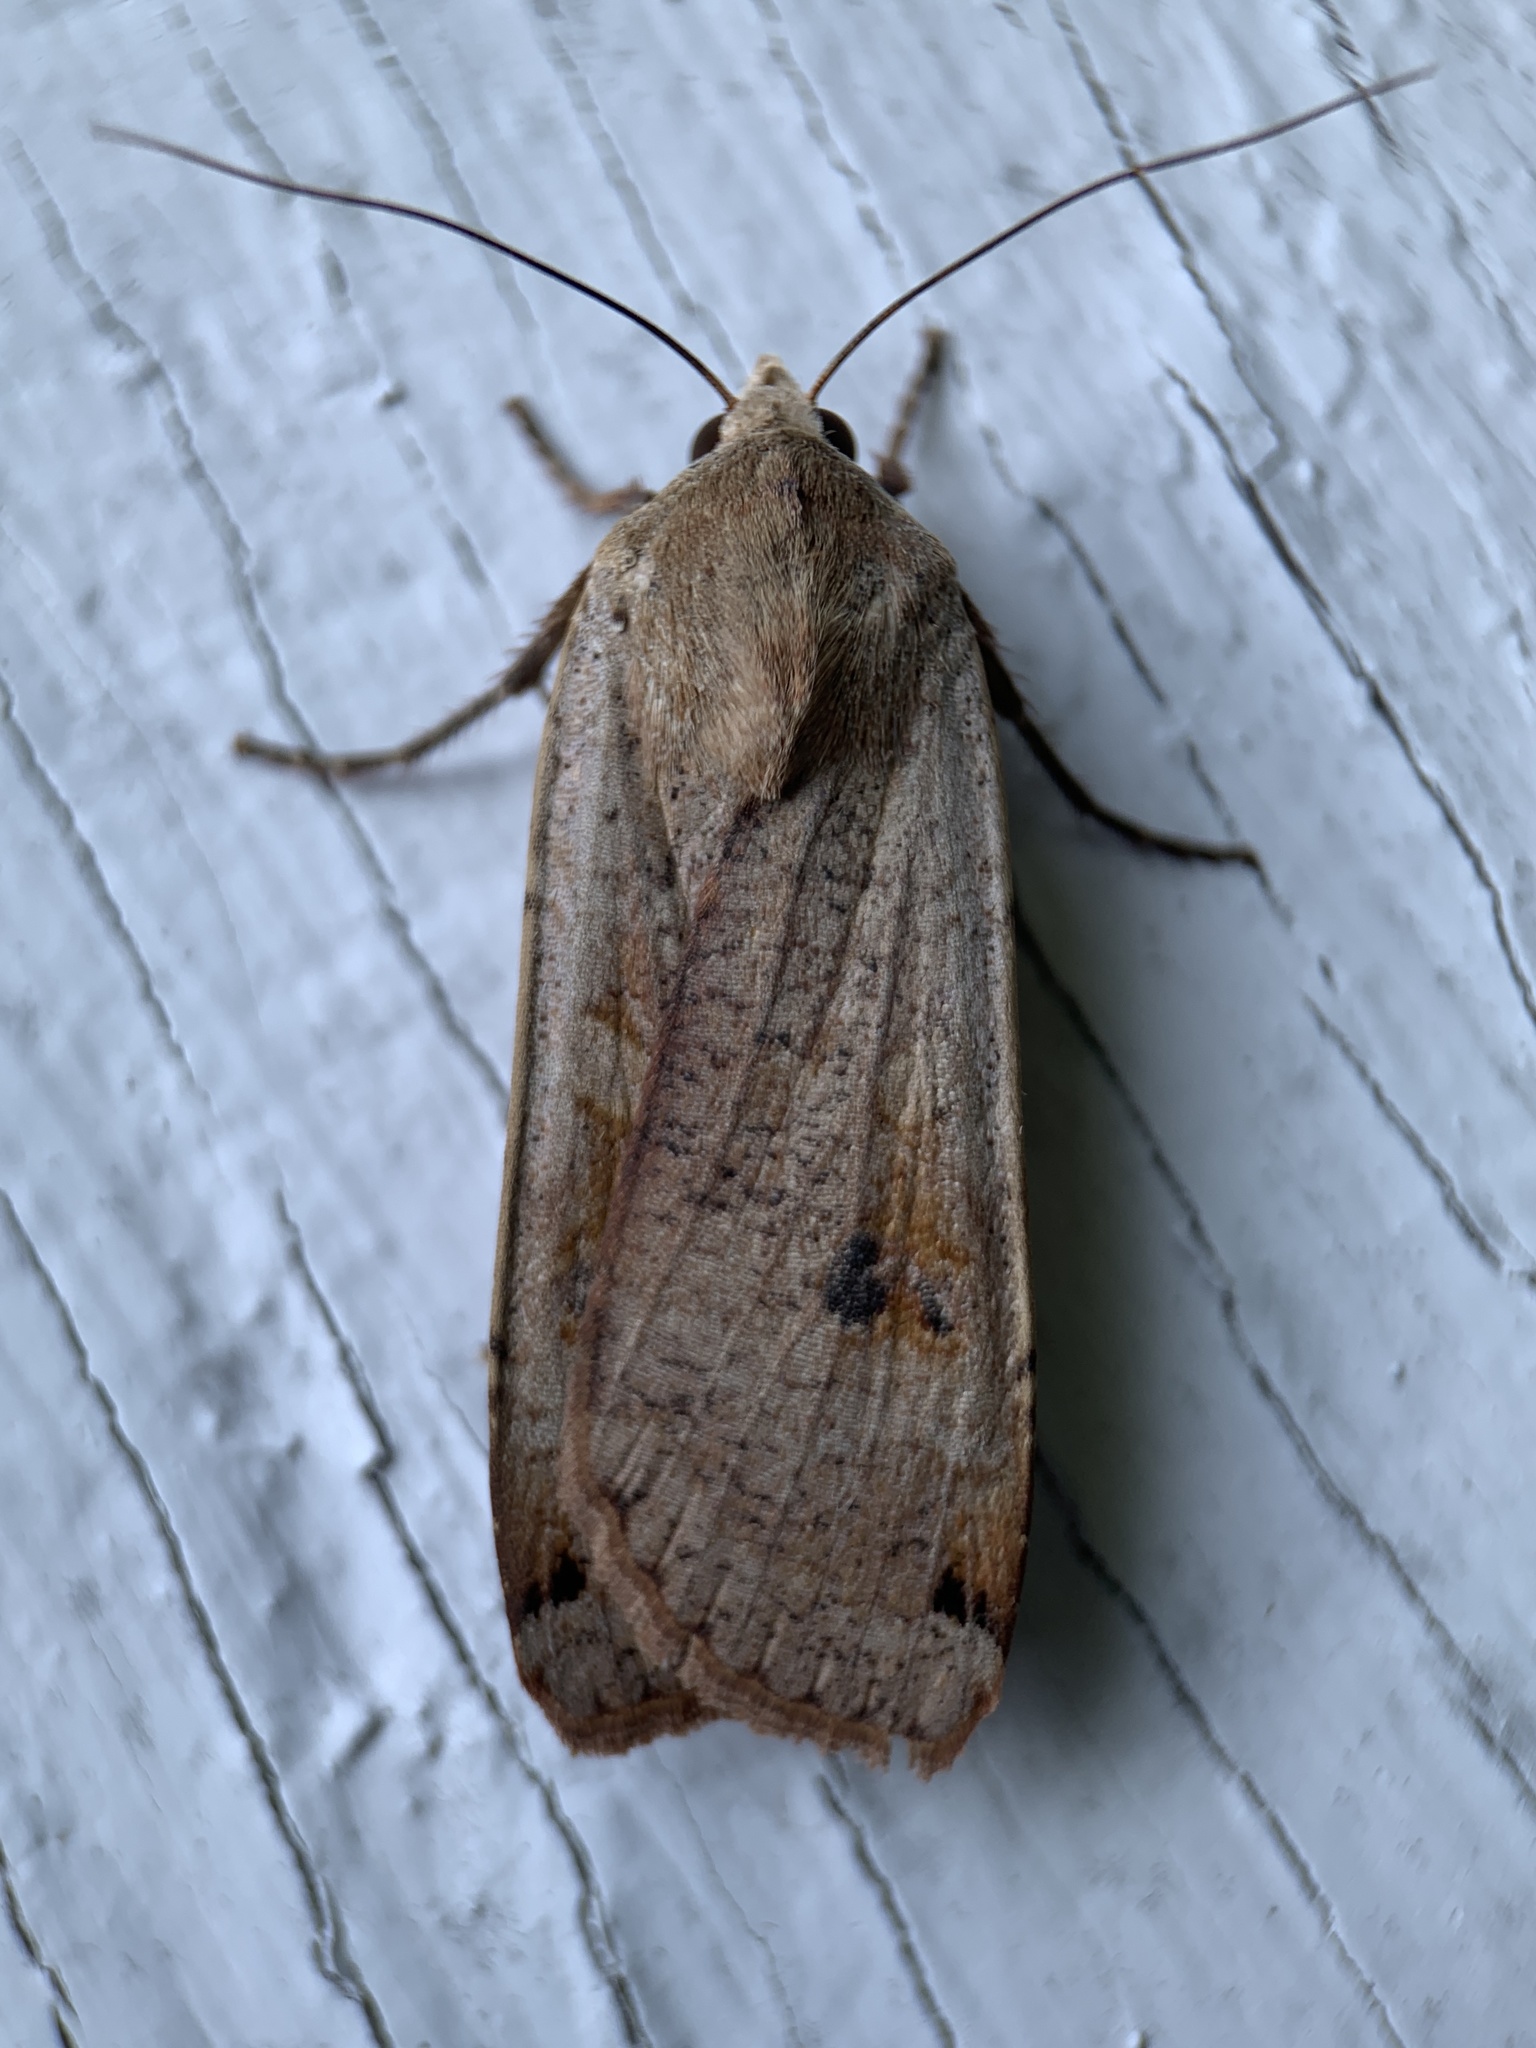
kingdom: Animalia
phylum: Arthropoda
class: Insecta
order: Lepidoptera
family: Noctuidae
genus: Noctua
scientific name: Noctua pronuba
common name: Large yellow underwing
